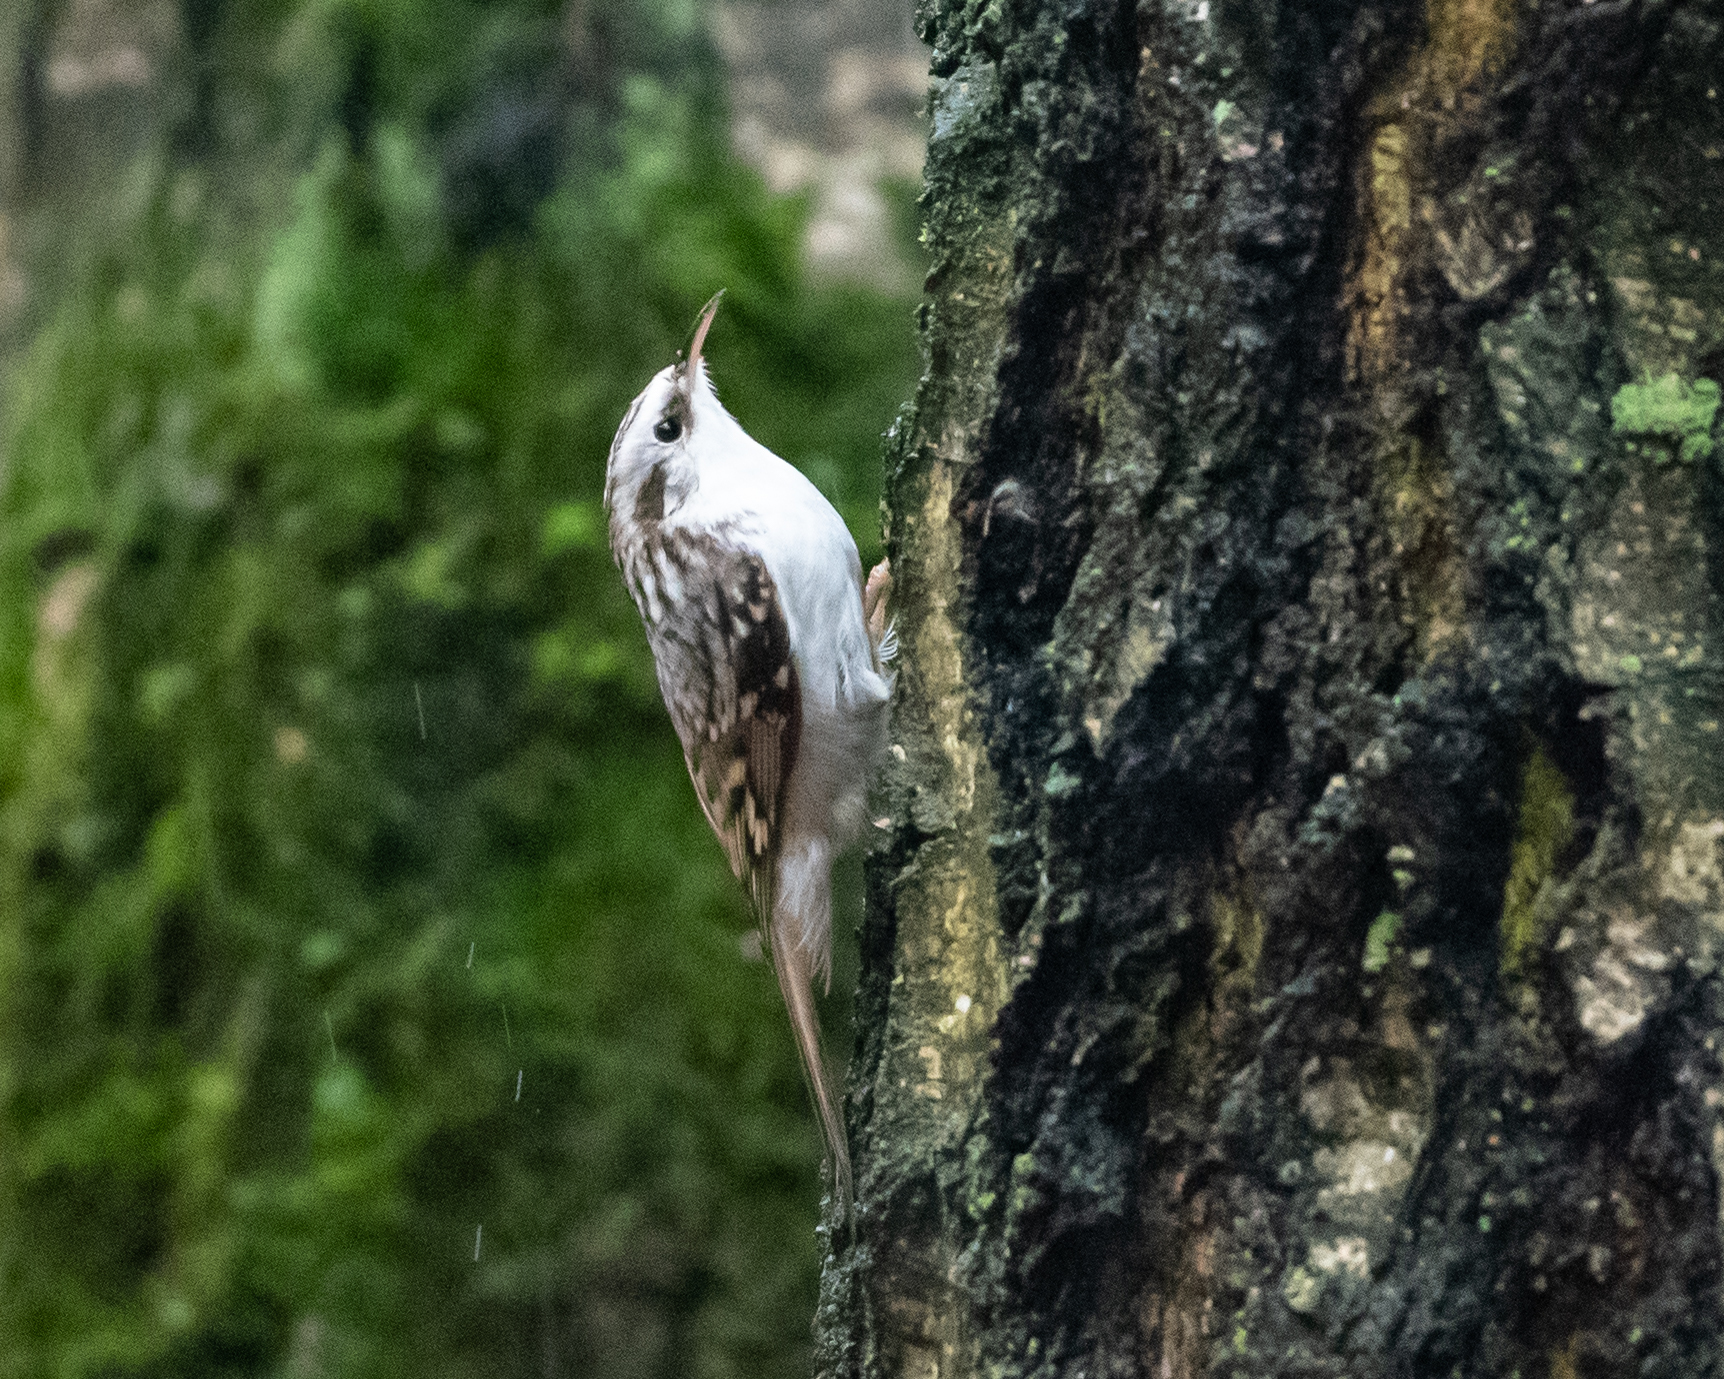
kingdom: Animalia
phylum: Chordata
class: Aves
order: Passeriformes
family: Certhiidae
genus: Certhia
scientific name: Certhia familiaris
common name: Eurasian treecreeper
